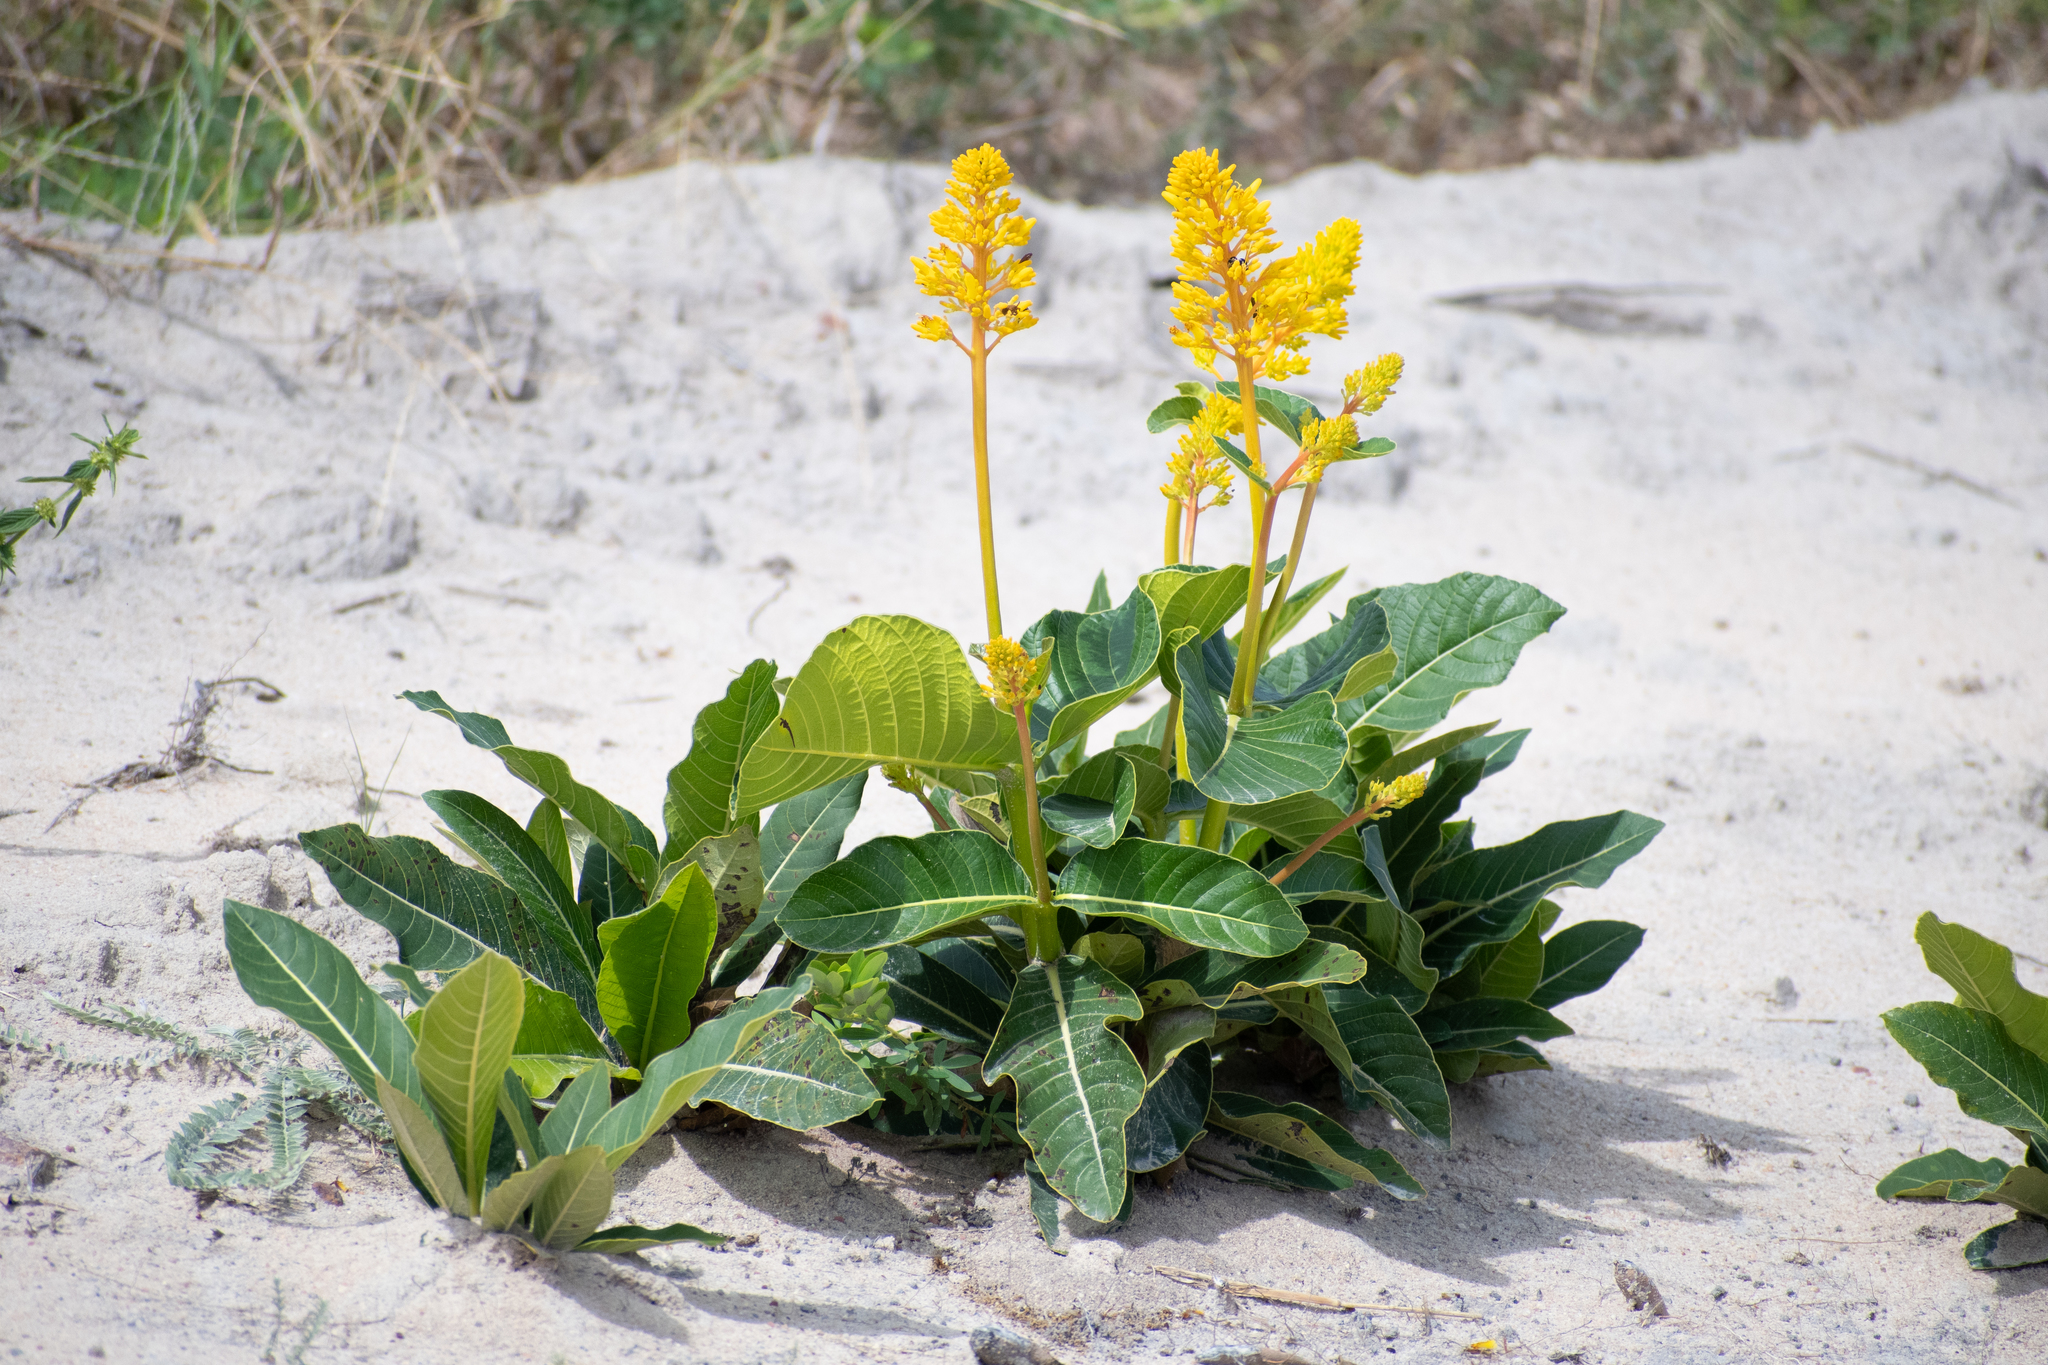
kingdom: Plantae
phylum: Tracheophyta
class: Magnoliopsida
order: Gentianales
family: Rubiaceae
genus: Palicourea
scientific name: Palicourea rigida
